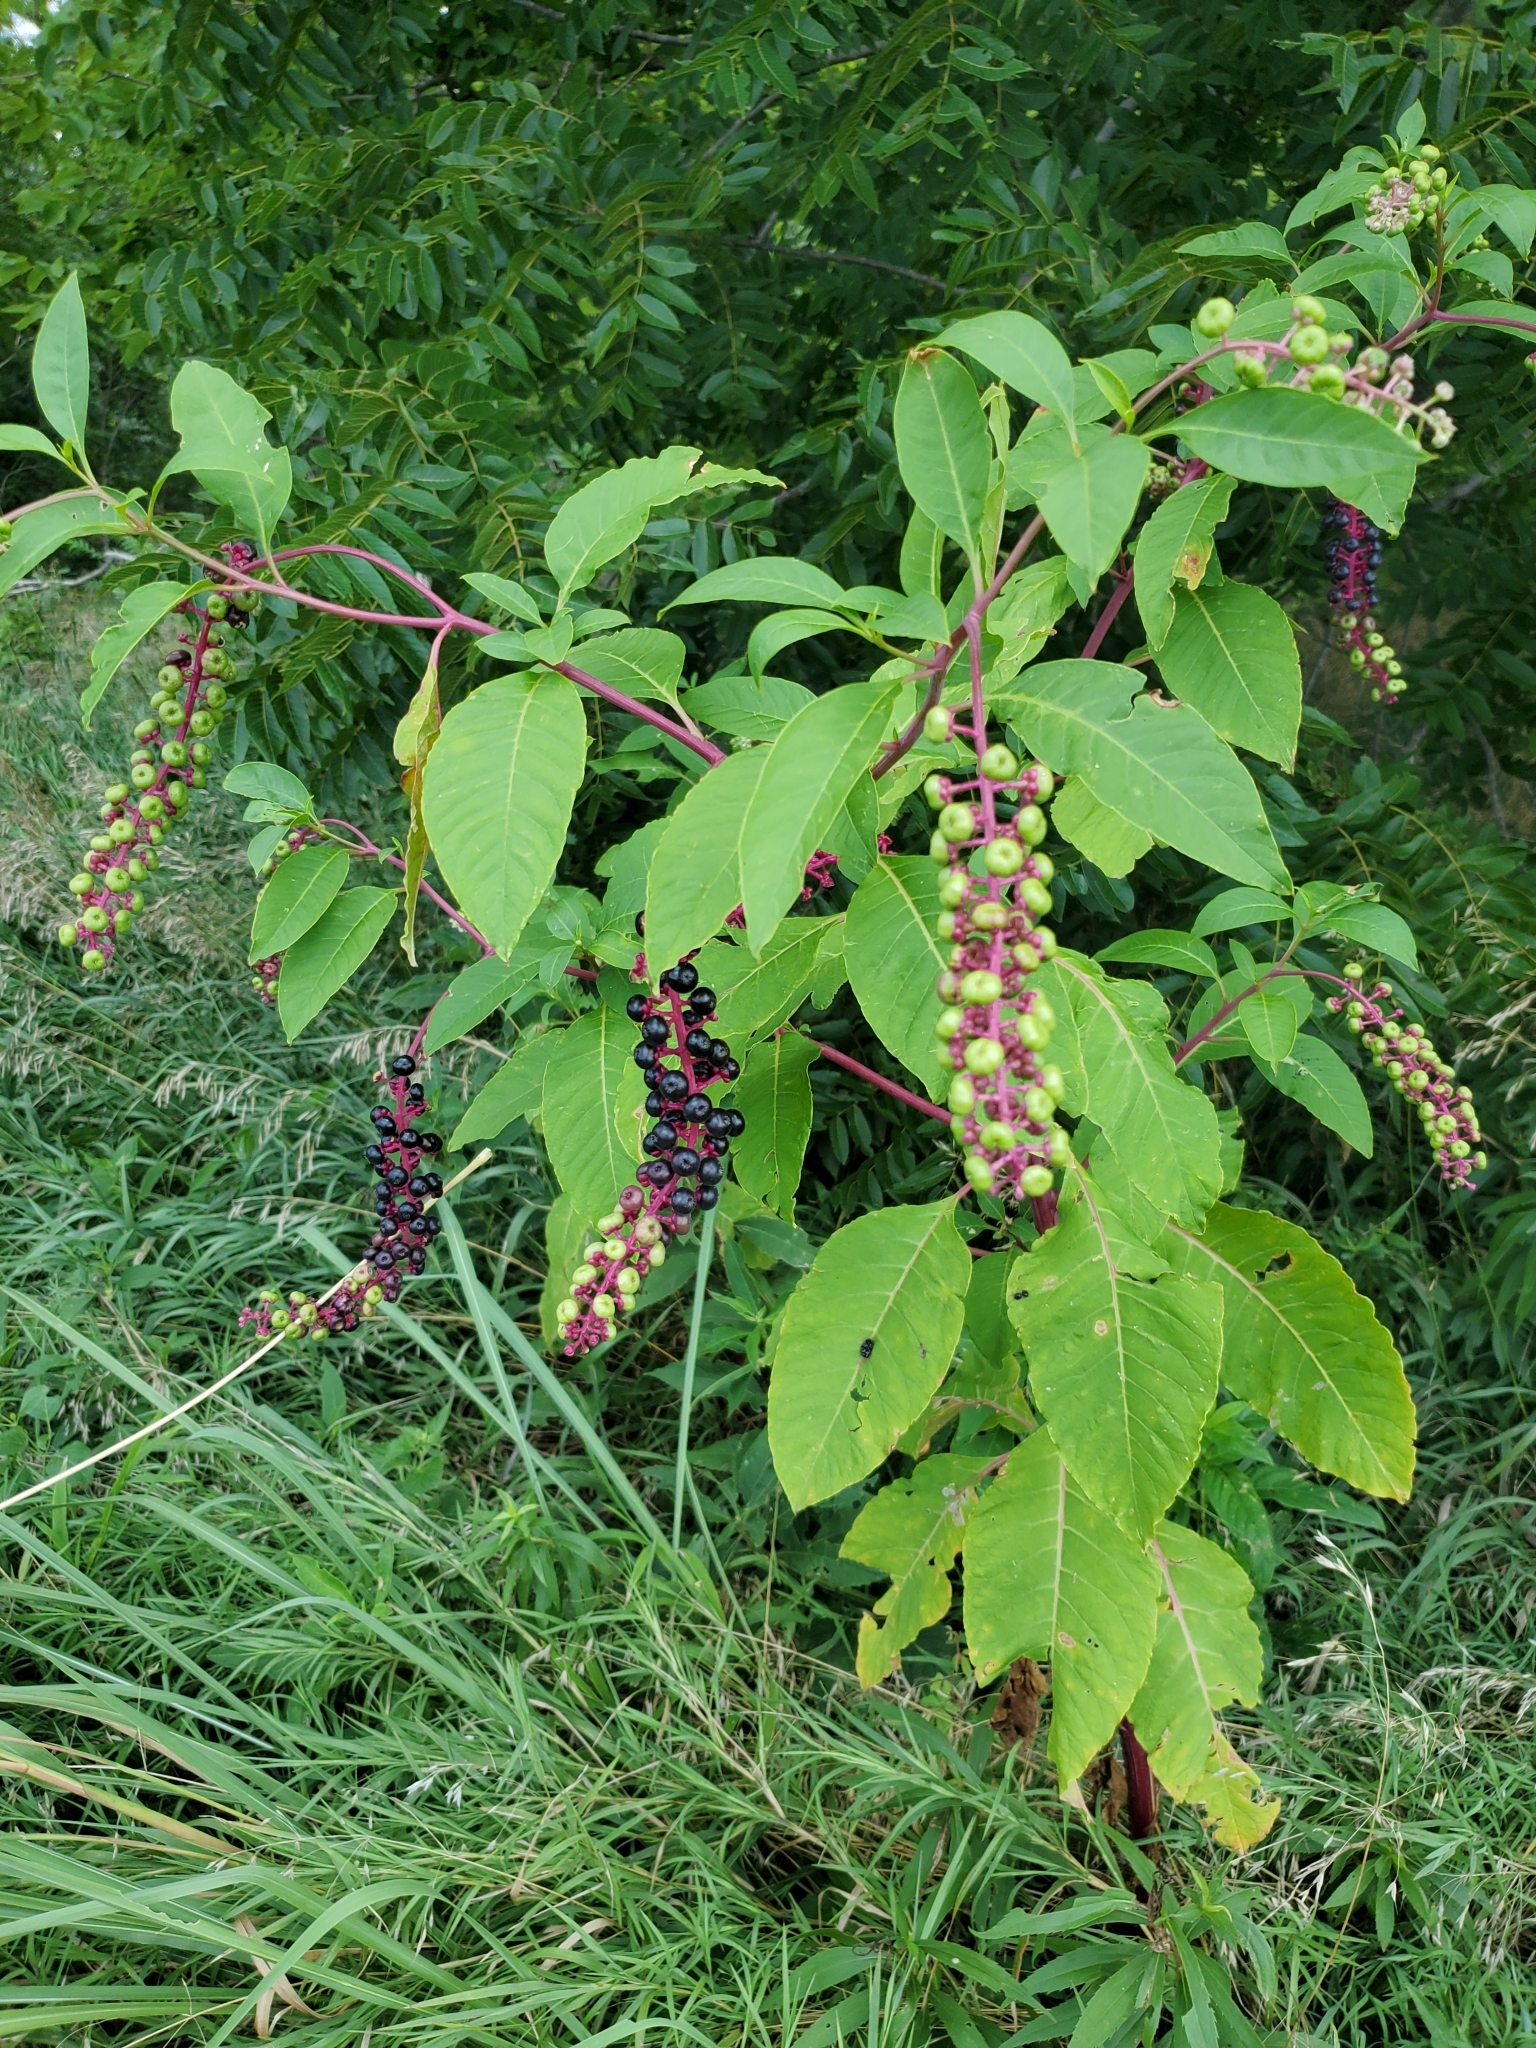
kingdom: Plantae
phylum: Tracheophyta
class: Magnoliopsida
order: Caryophyllales
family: Phytolaccaceae
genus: Phytolacca
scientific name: Phytolacca americana
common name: American pokeweed
